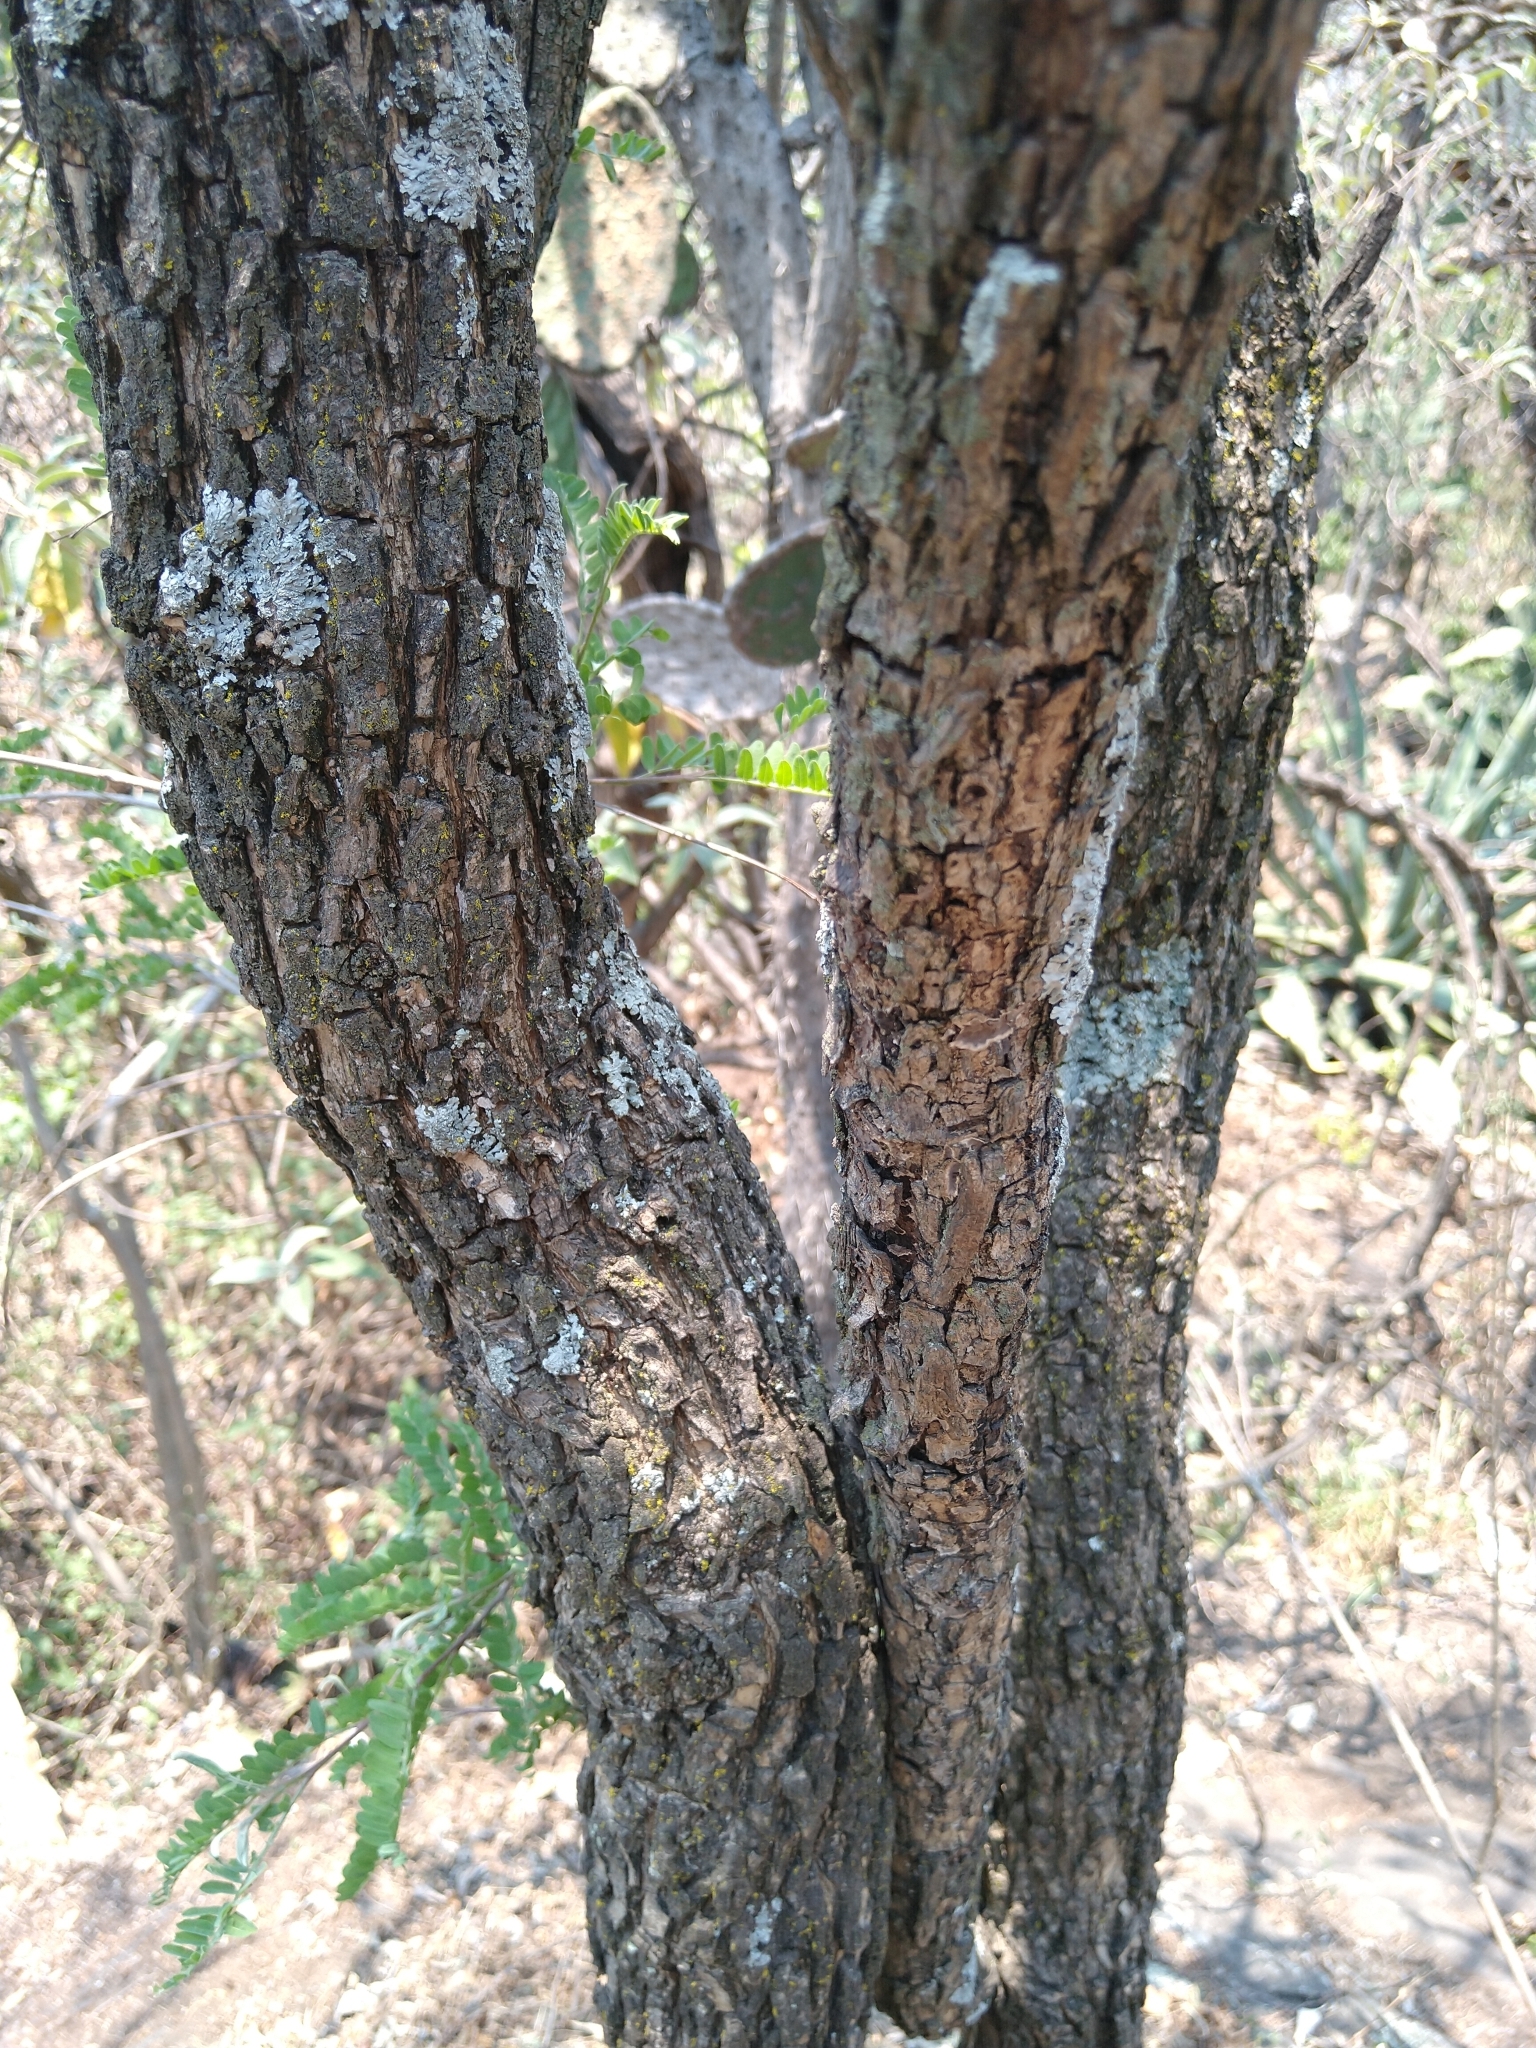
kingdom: Plantae
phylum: Tracheophyta
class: Magnoliopsida
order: Fabales
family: Fabaceae
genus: Eysenhardtia
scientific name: Eysenhardtia polystachya
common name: Kidneywood
